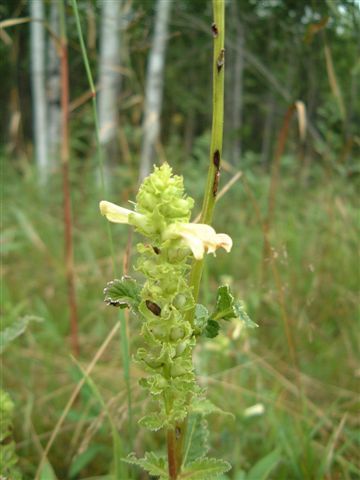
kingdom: Plantae
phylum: Tracheophyta
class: Magnoliopsida
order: Lamiales
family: Orobanchaceae
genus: Pedicularis
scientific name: Pedicularis lanceolata
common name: Swamp lousewort
